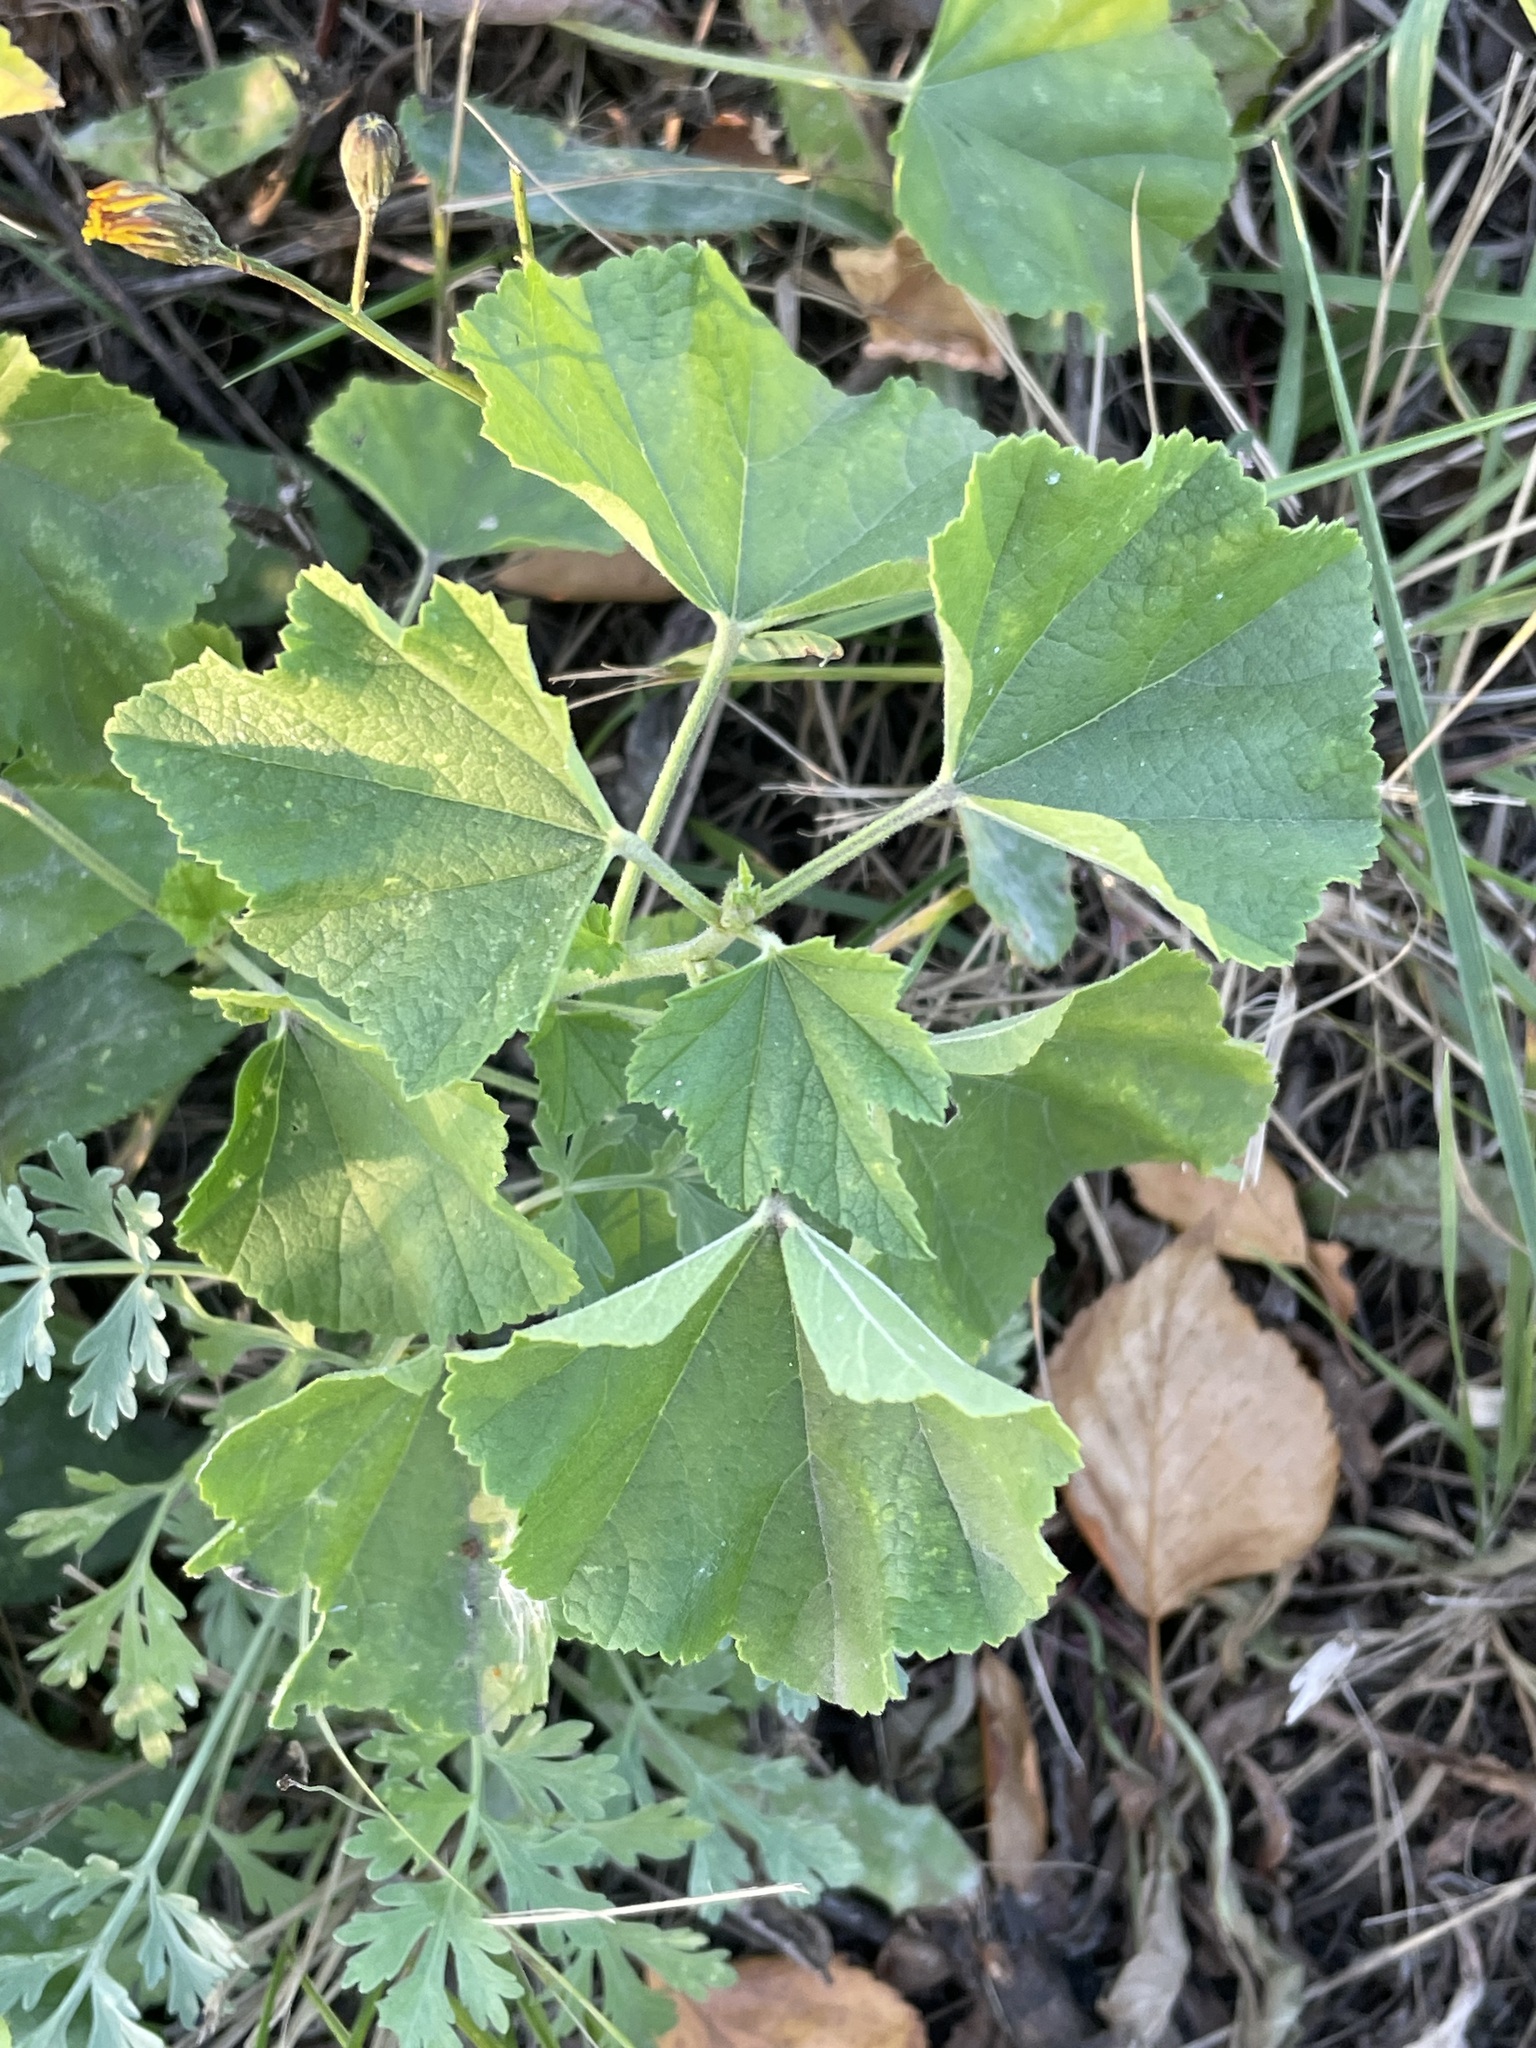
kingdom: Plantae
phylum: Tracheophyta
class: Magnoliopsida
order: Malvales
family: Malvaceae
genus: Malva
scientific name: Malva thuringiaca
